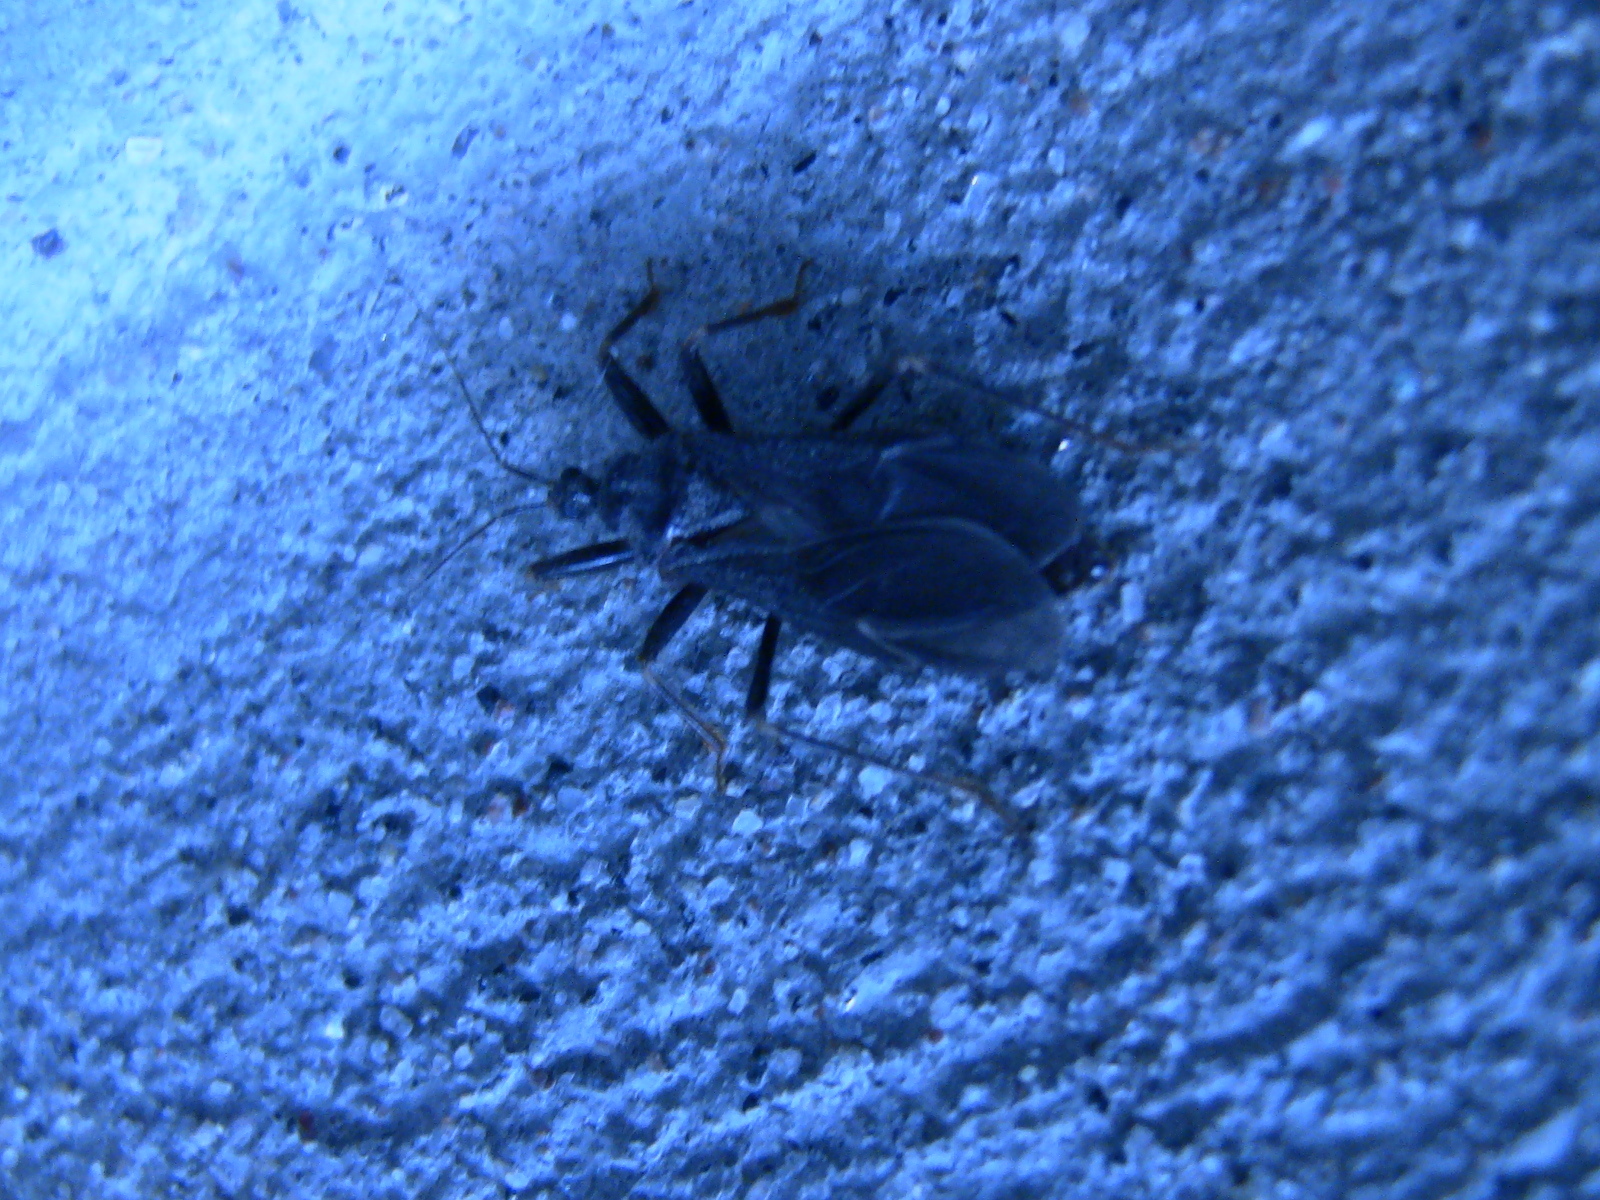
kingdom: Animalia
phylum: Arthropoda
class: Insecta
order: Hemiptera
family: Reduviidae
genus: Reduvius
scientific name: Reduvius personatus
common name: Masked hunter
